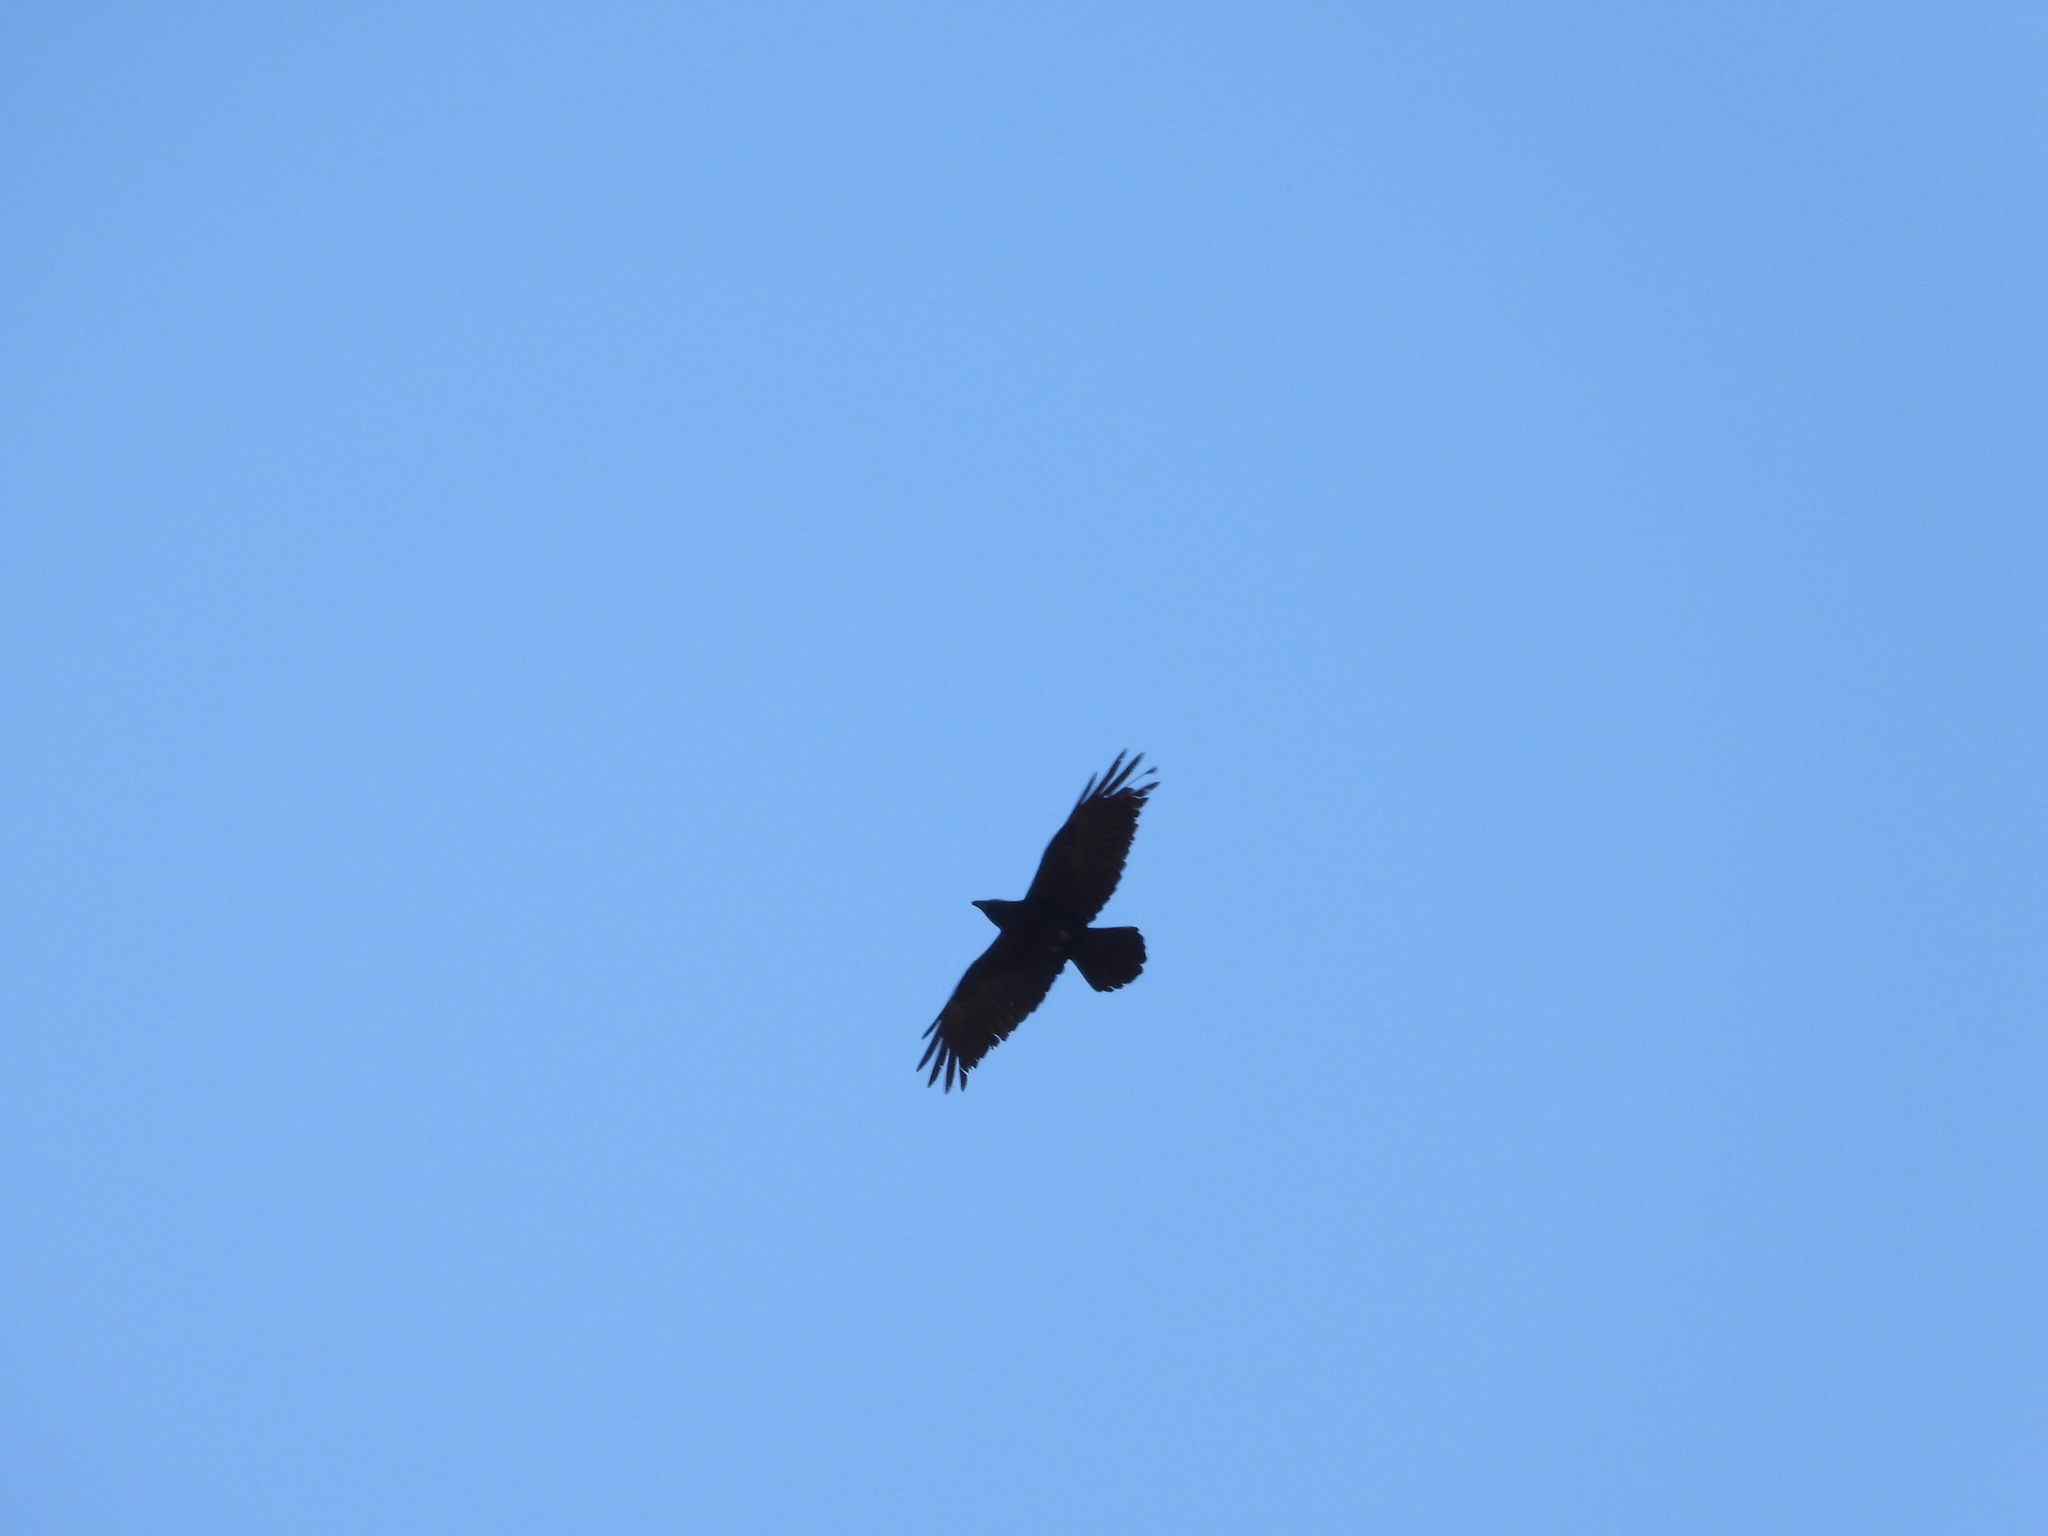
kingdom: Animalia
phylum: Chordata
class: Aves
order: Passeriformes
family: Corvidae
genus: Corvus
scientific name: Corvus corax
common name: Common raven
